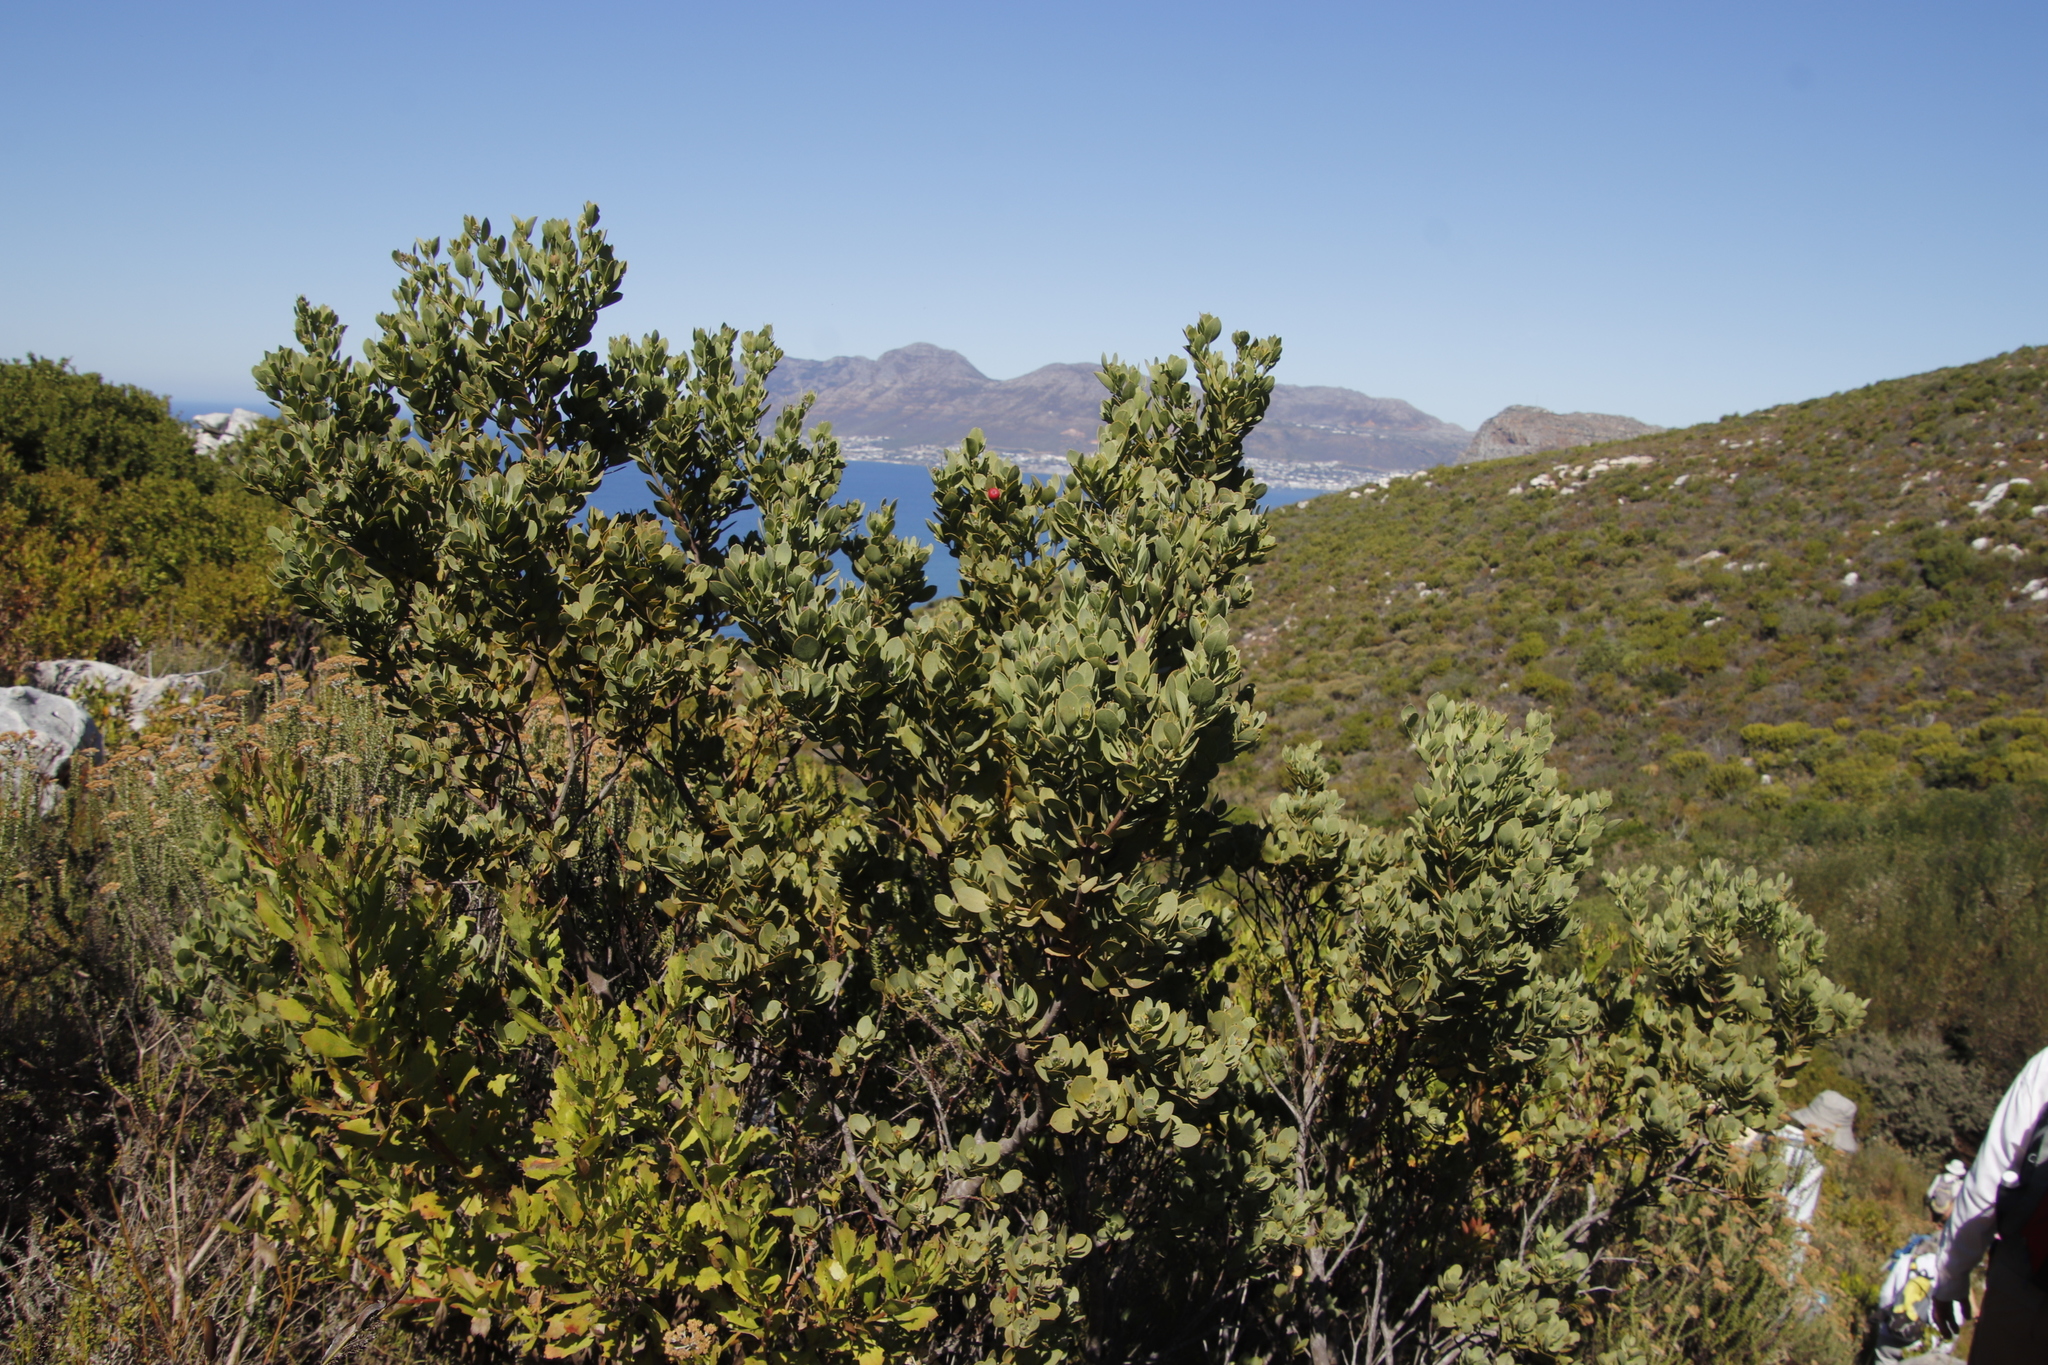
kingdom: Plantae
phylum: Tracheophyta
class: Magnoliopsida
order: Santalales
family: Santalaceae
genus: Osyris
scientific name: Osyris compressa
